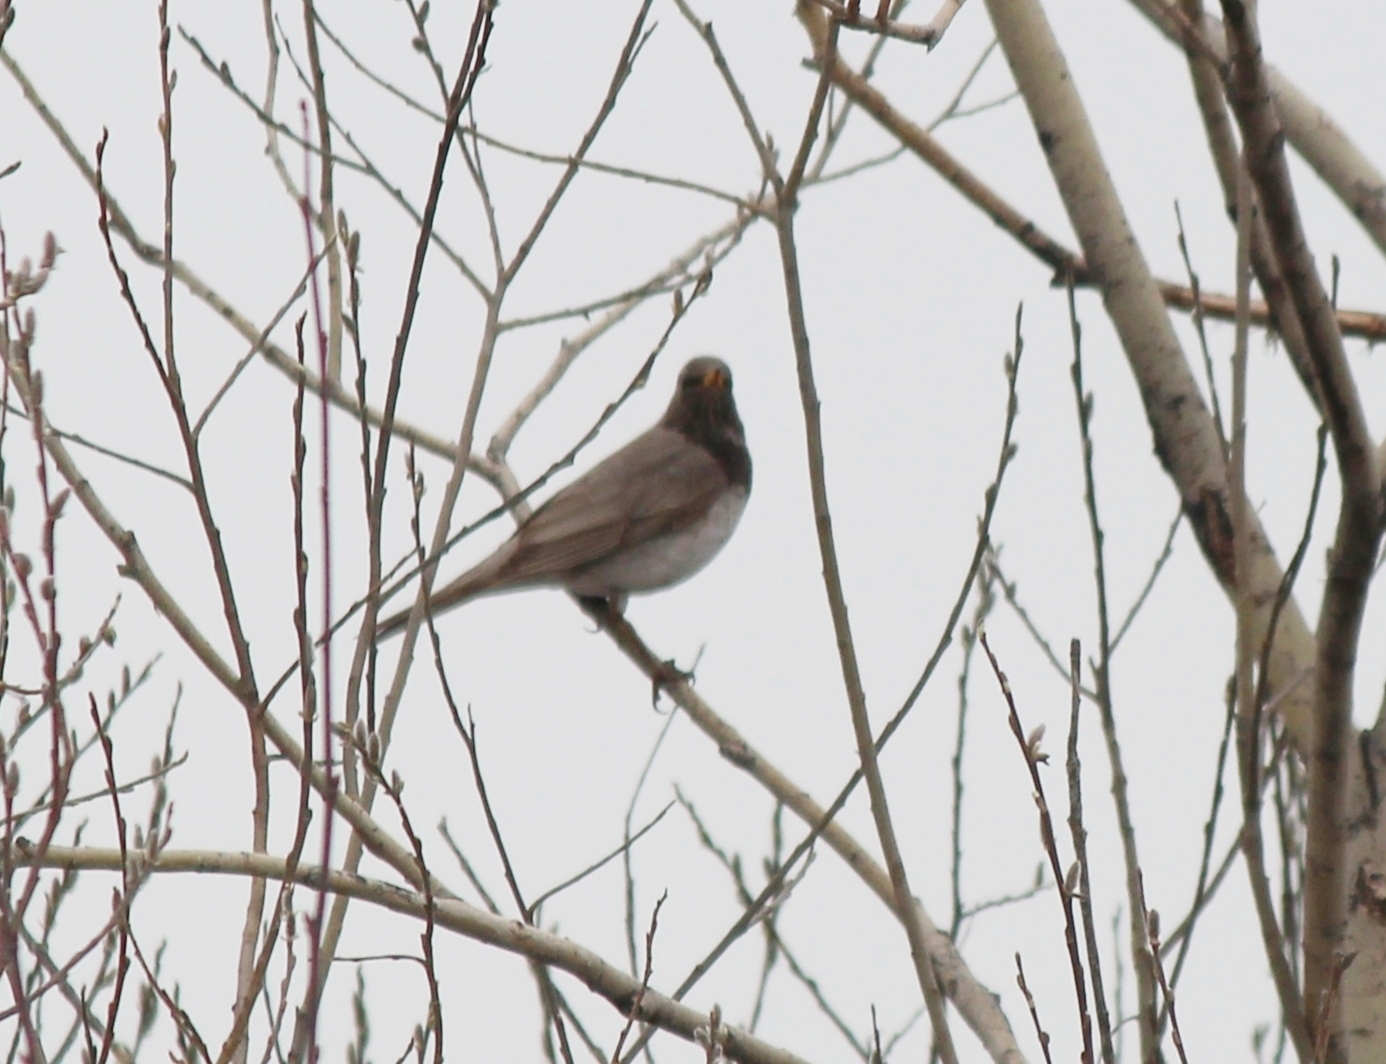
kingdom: Animalia
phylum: Chordata
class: Aves
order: Passeriformes
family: Turdidae
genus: Turdus
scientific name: Turdus ruficollis
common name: Red-throated thrush
